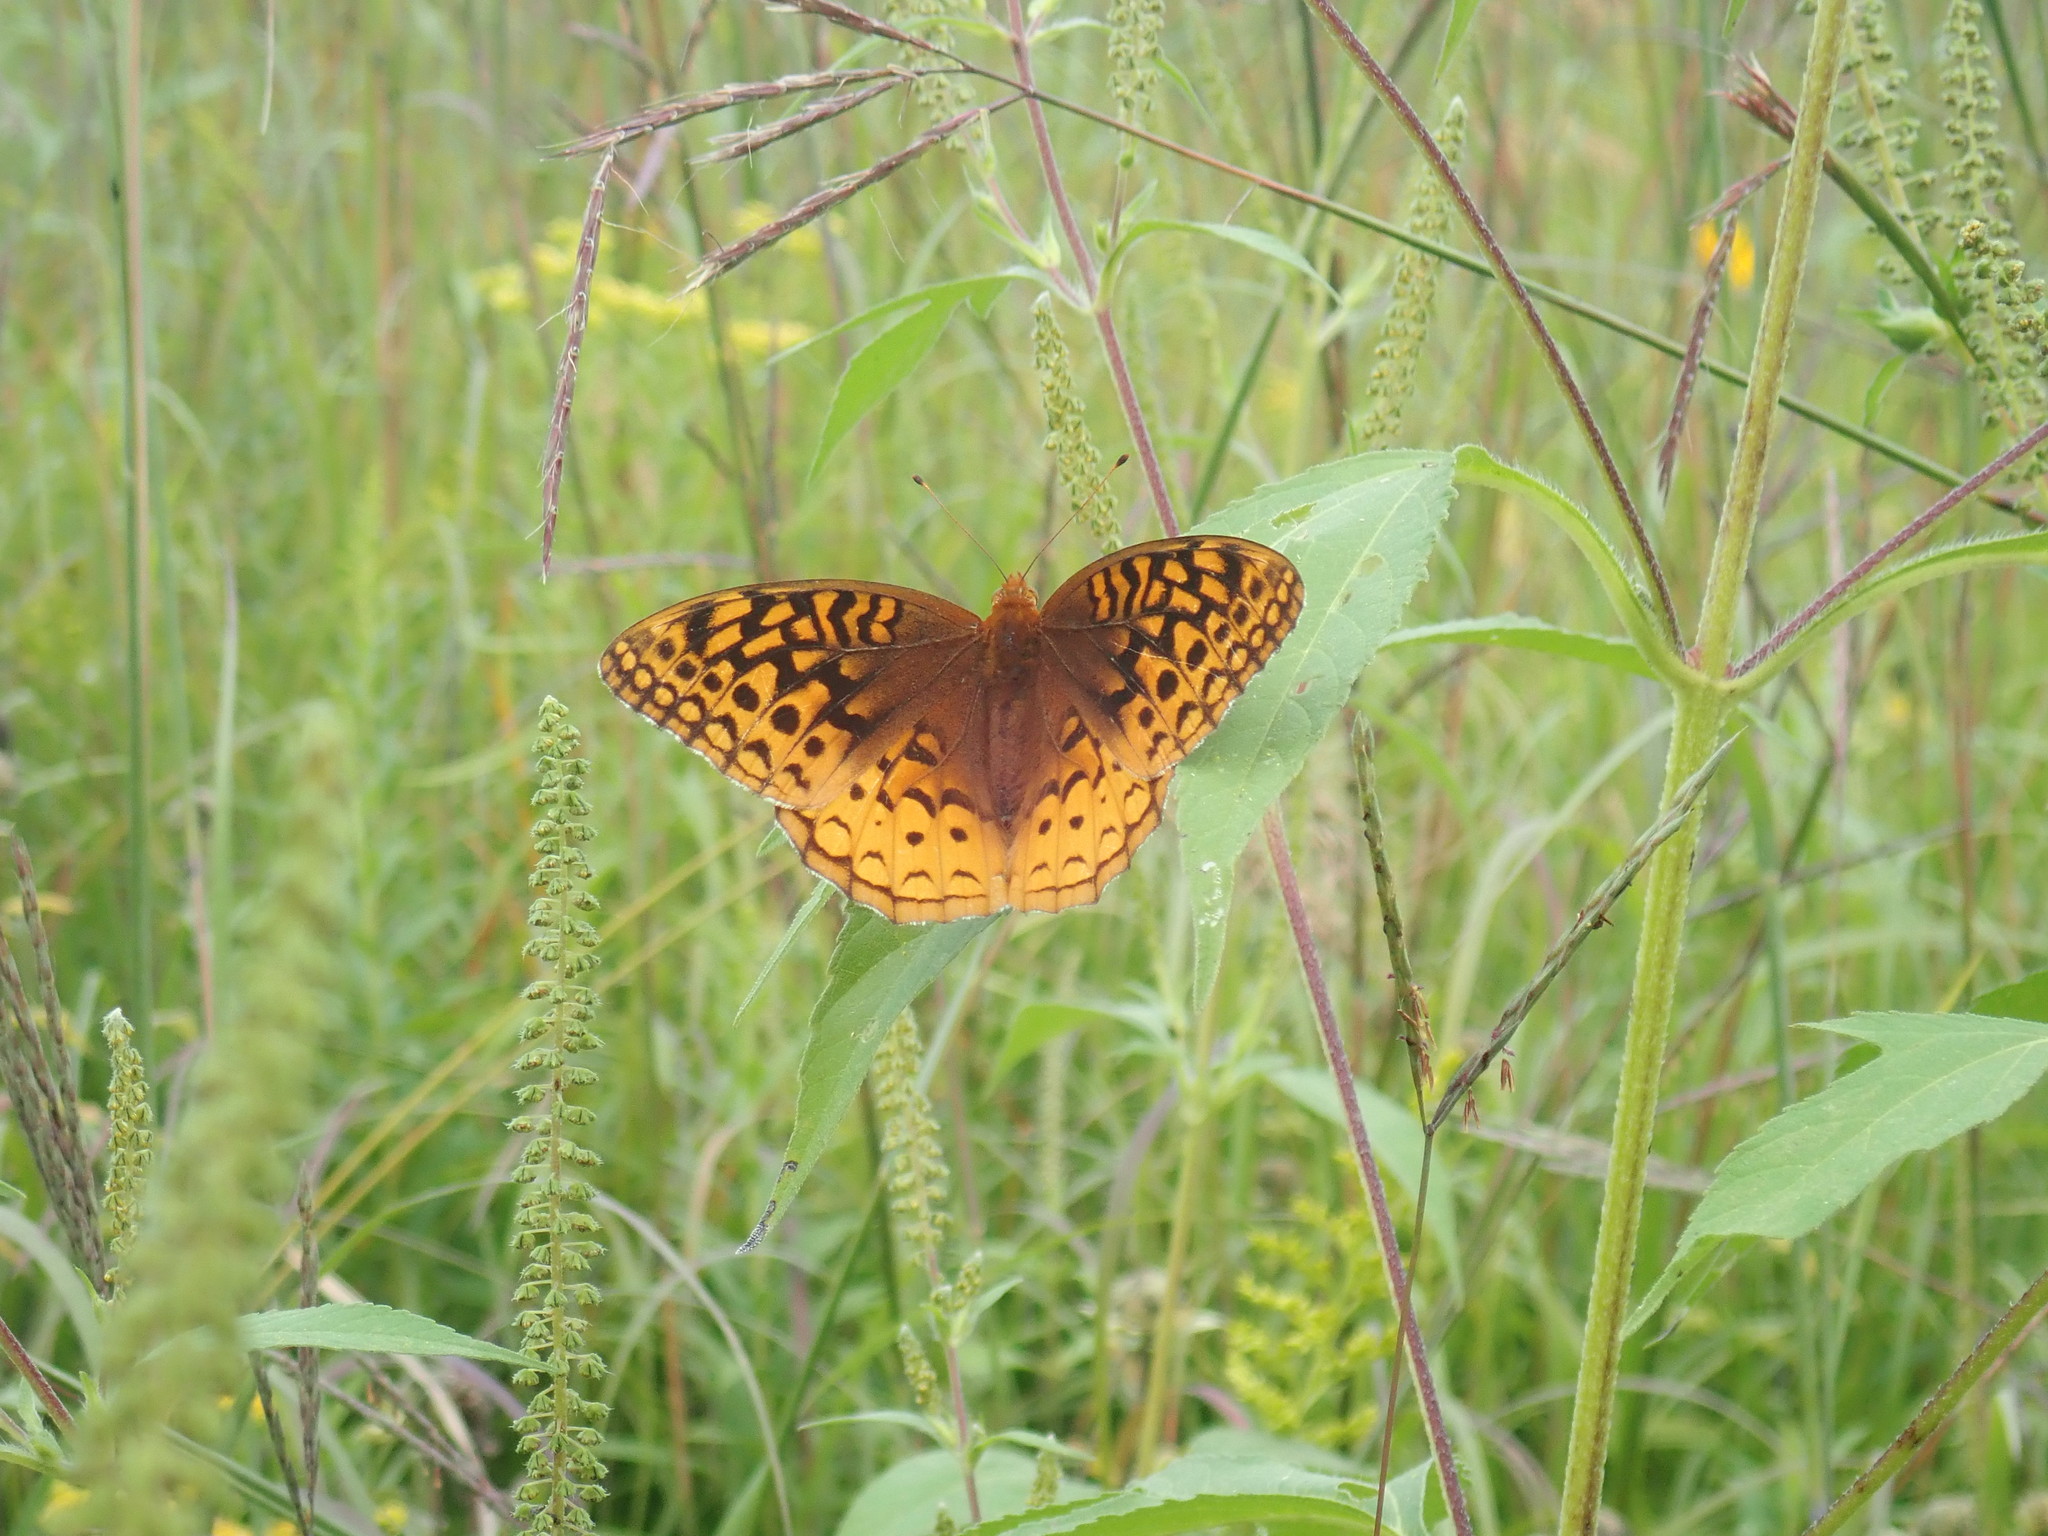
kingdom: Animalia
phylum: Arthropoda
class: Insecta
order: Lepidoptera
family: Nymphalidae
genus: Speyeria
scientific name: Speyeria cybele
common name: Great spangled fritillary
